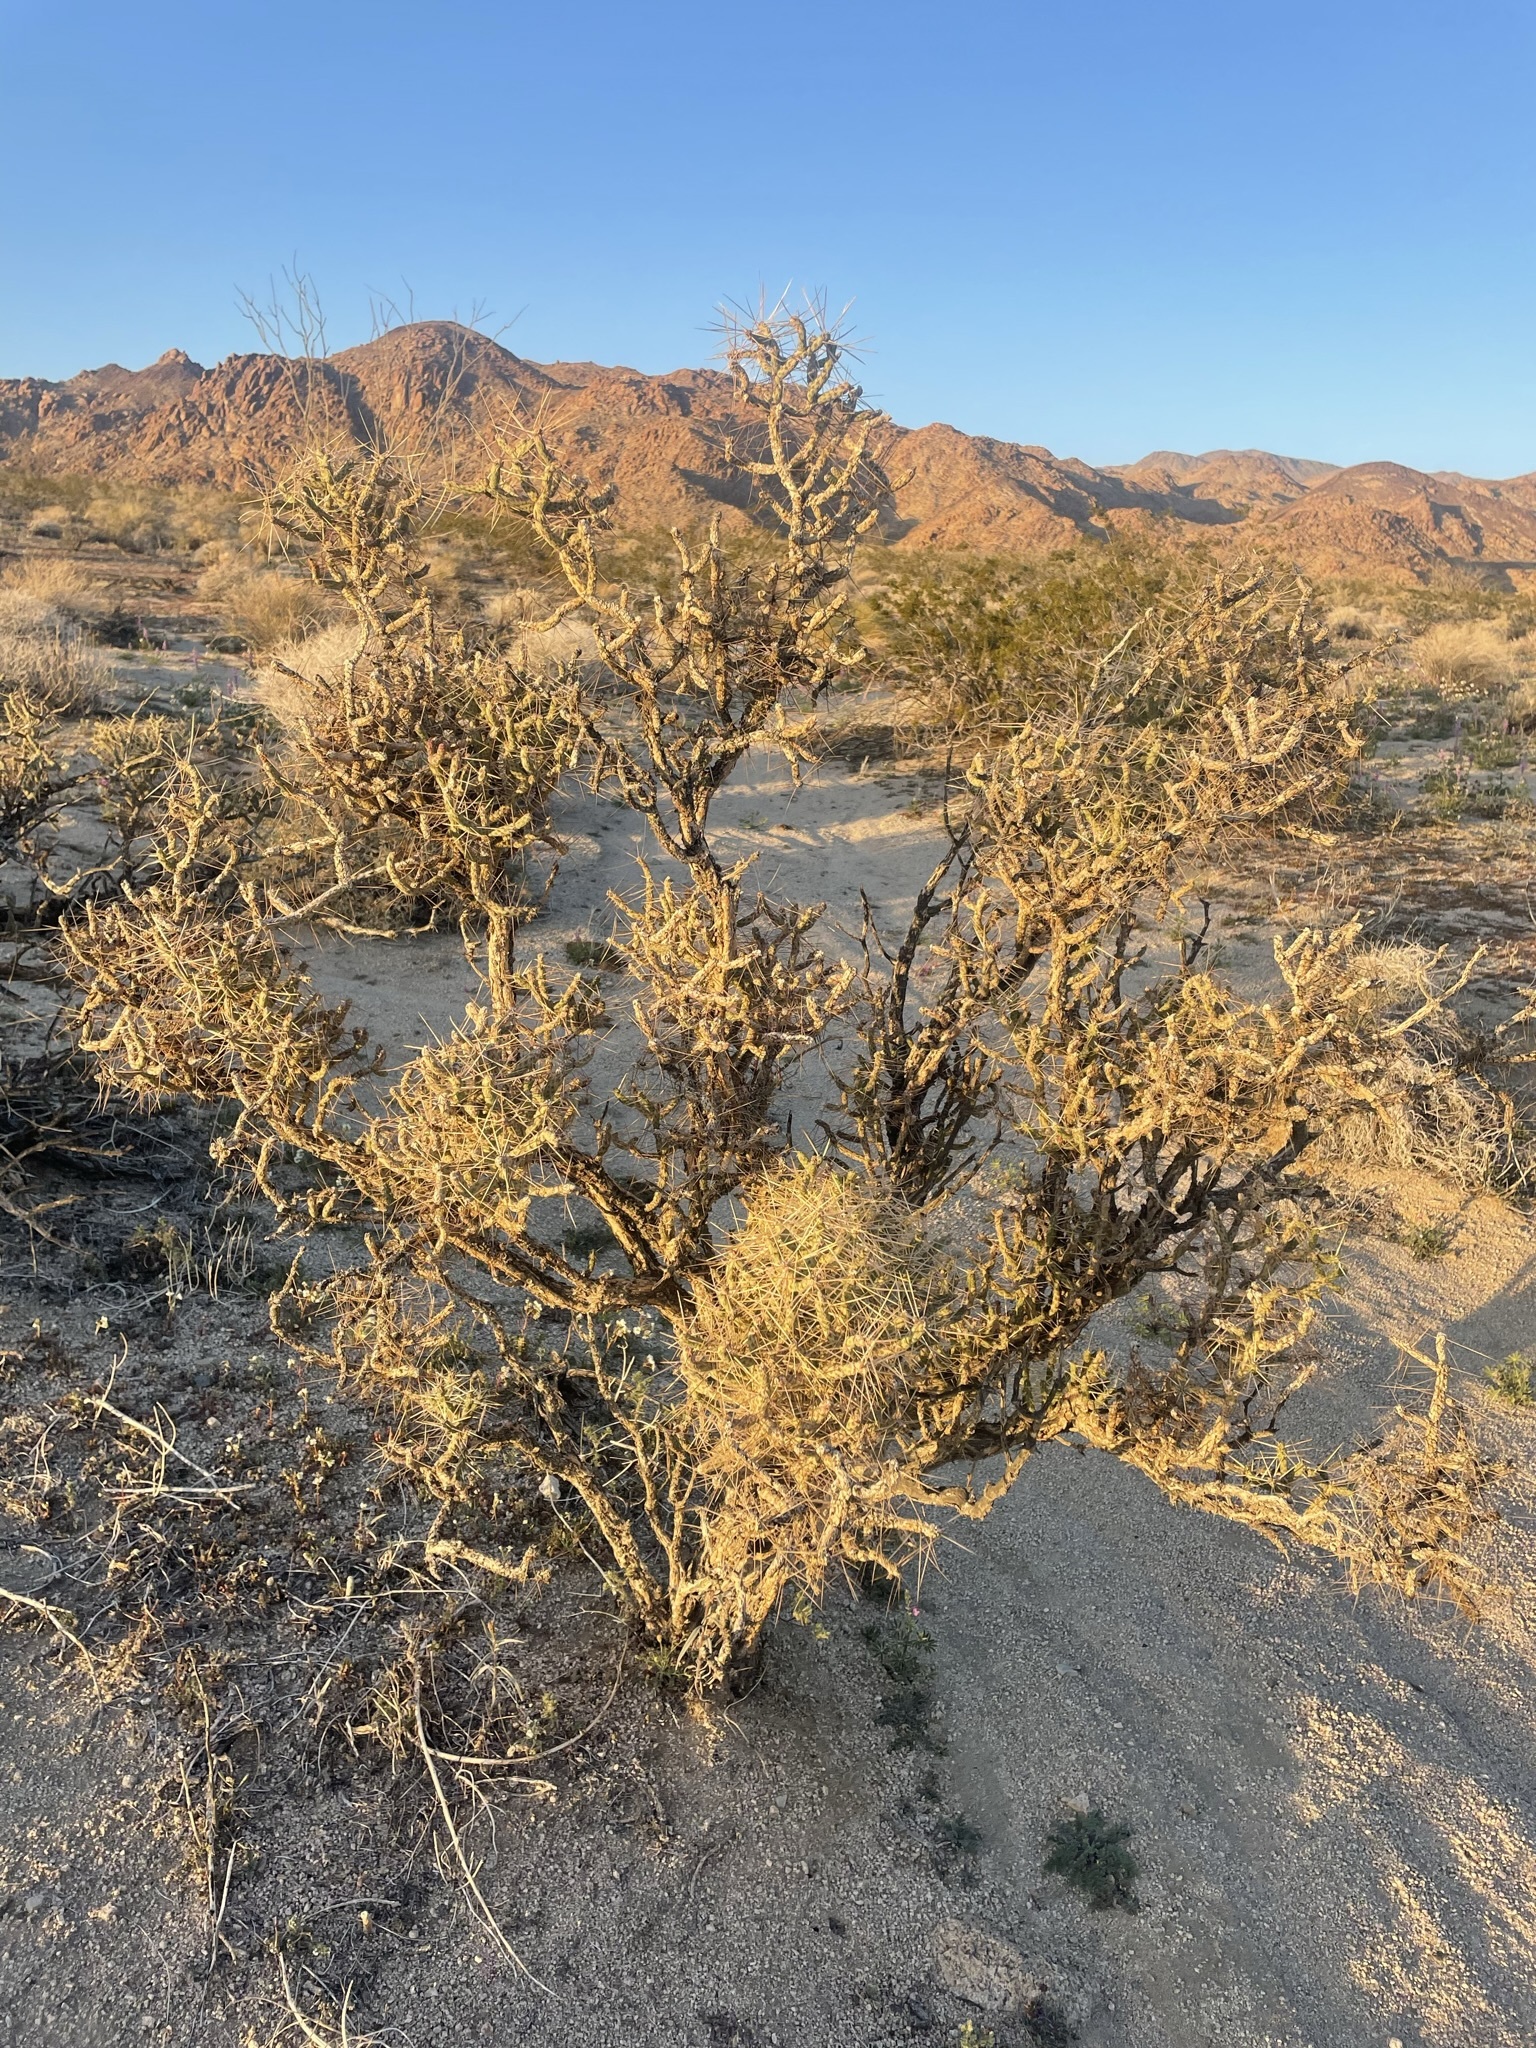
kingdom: Plantae
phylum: Tracheophyta
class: Magnoliopsida
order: Caryophyllales
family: Cactaceae
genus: Cylindropuntia
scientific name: Cylindropuntia ramosissima
